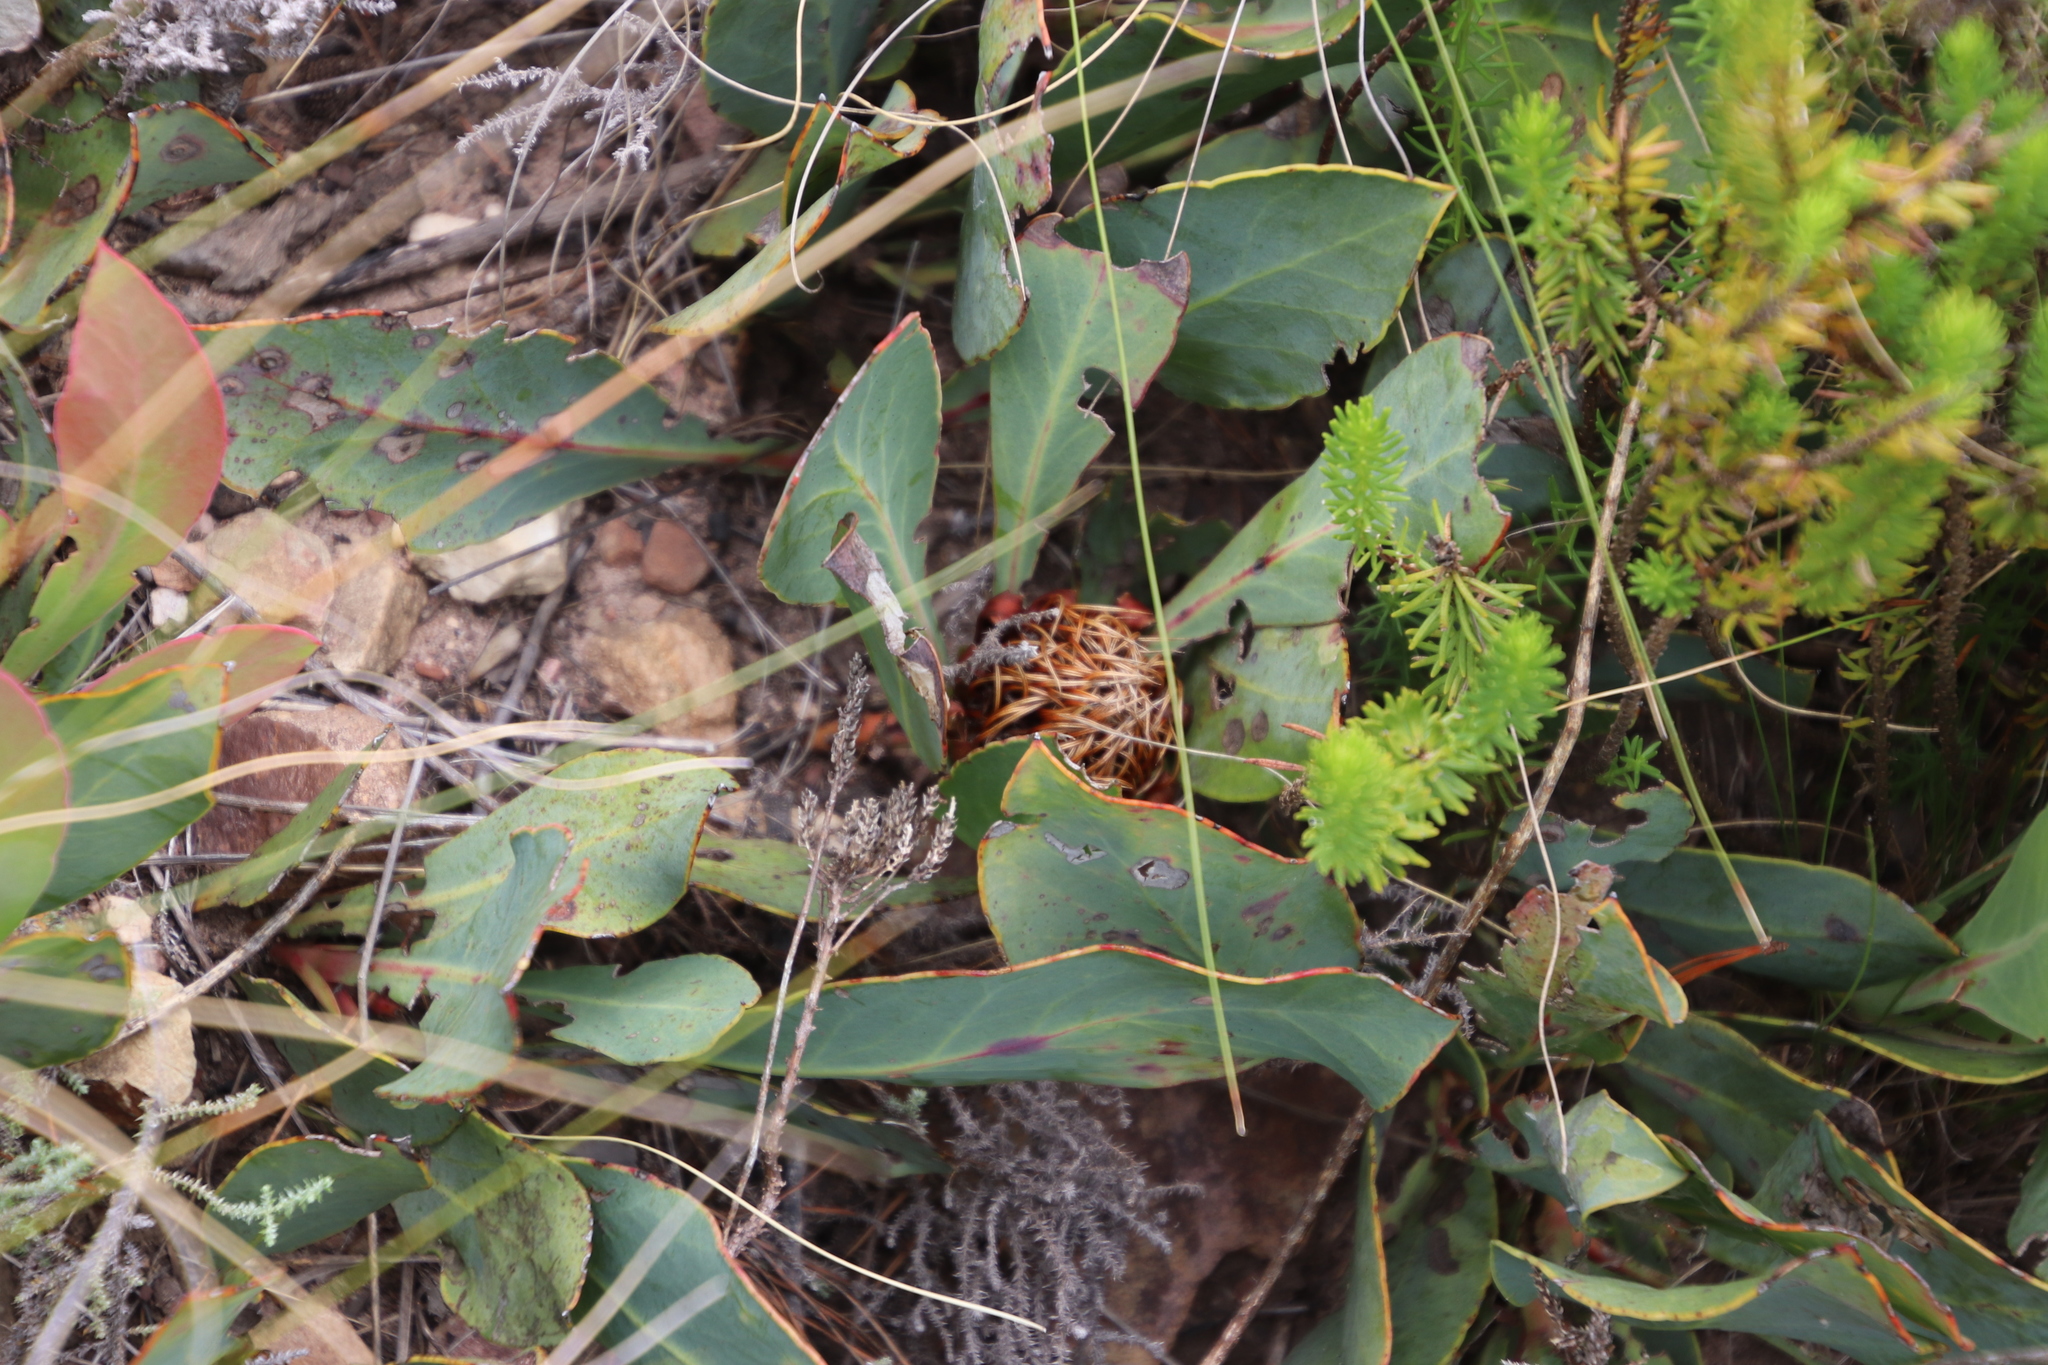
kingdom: Plantae
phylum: Tracheophyta
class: Magnoliopsida
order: Proteales
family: Proteaceae
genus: Protea
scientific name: Protea acaulos
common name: Common ground sugarbush
